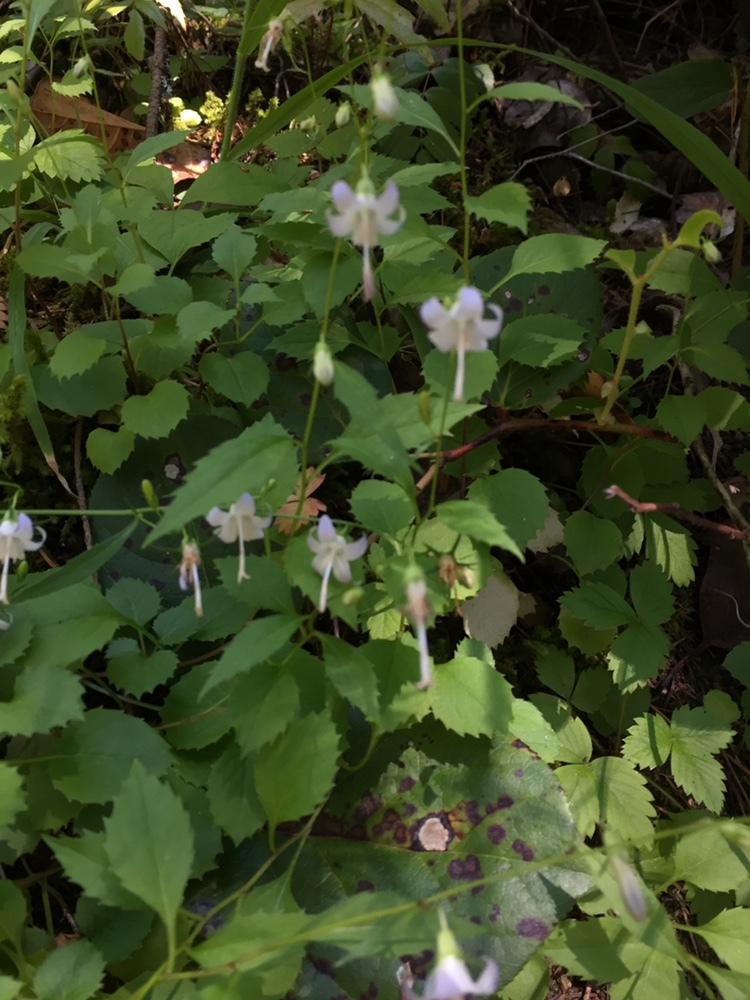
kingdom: Plantae
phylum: Tracheophyta
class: Magnoliopsida
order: Asterales
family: Campanulaceae
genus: Campanula
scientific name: Campanula scouleri
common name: Scouler's harebell
